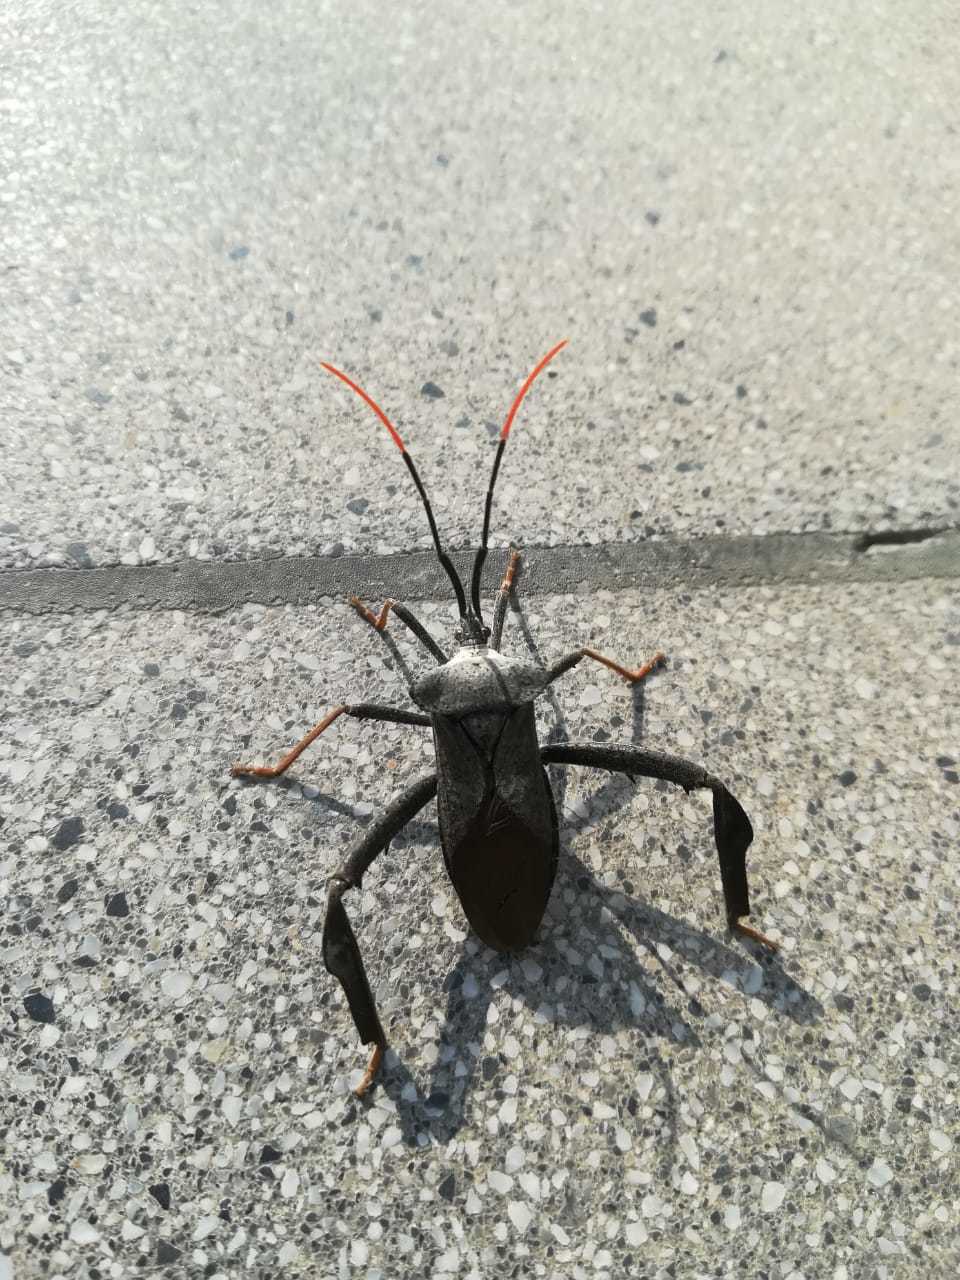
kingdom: Animalia
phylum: Arthropoda
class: Insecta
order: Hemiptera
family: Coreidae
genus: Acanthocephala
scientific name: Acanthocephala alata
